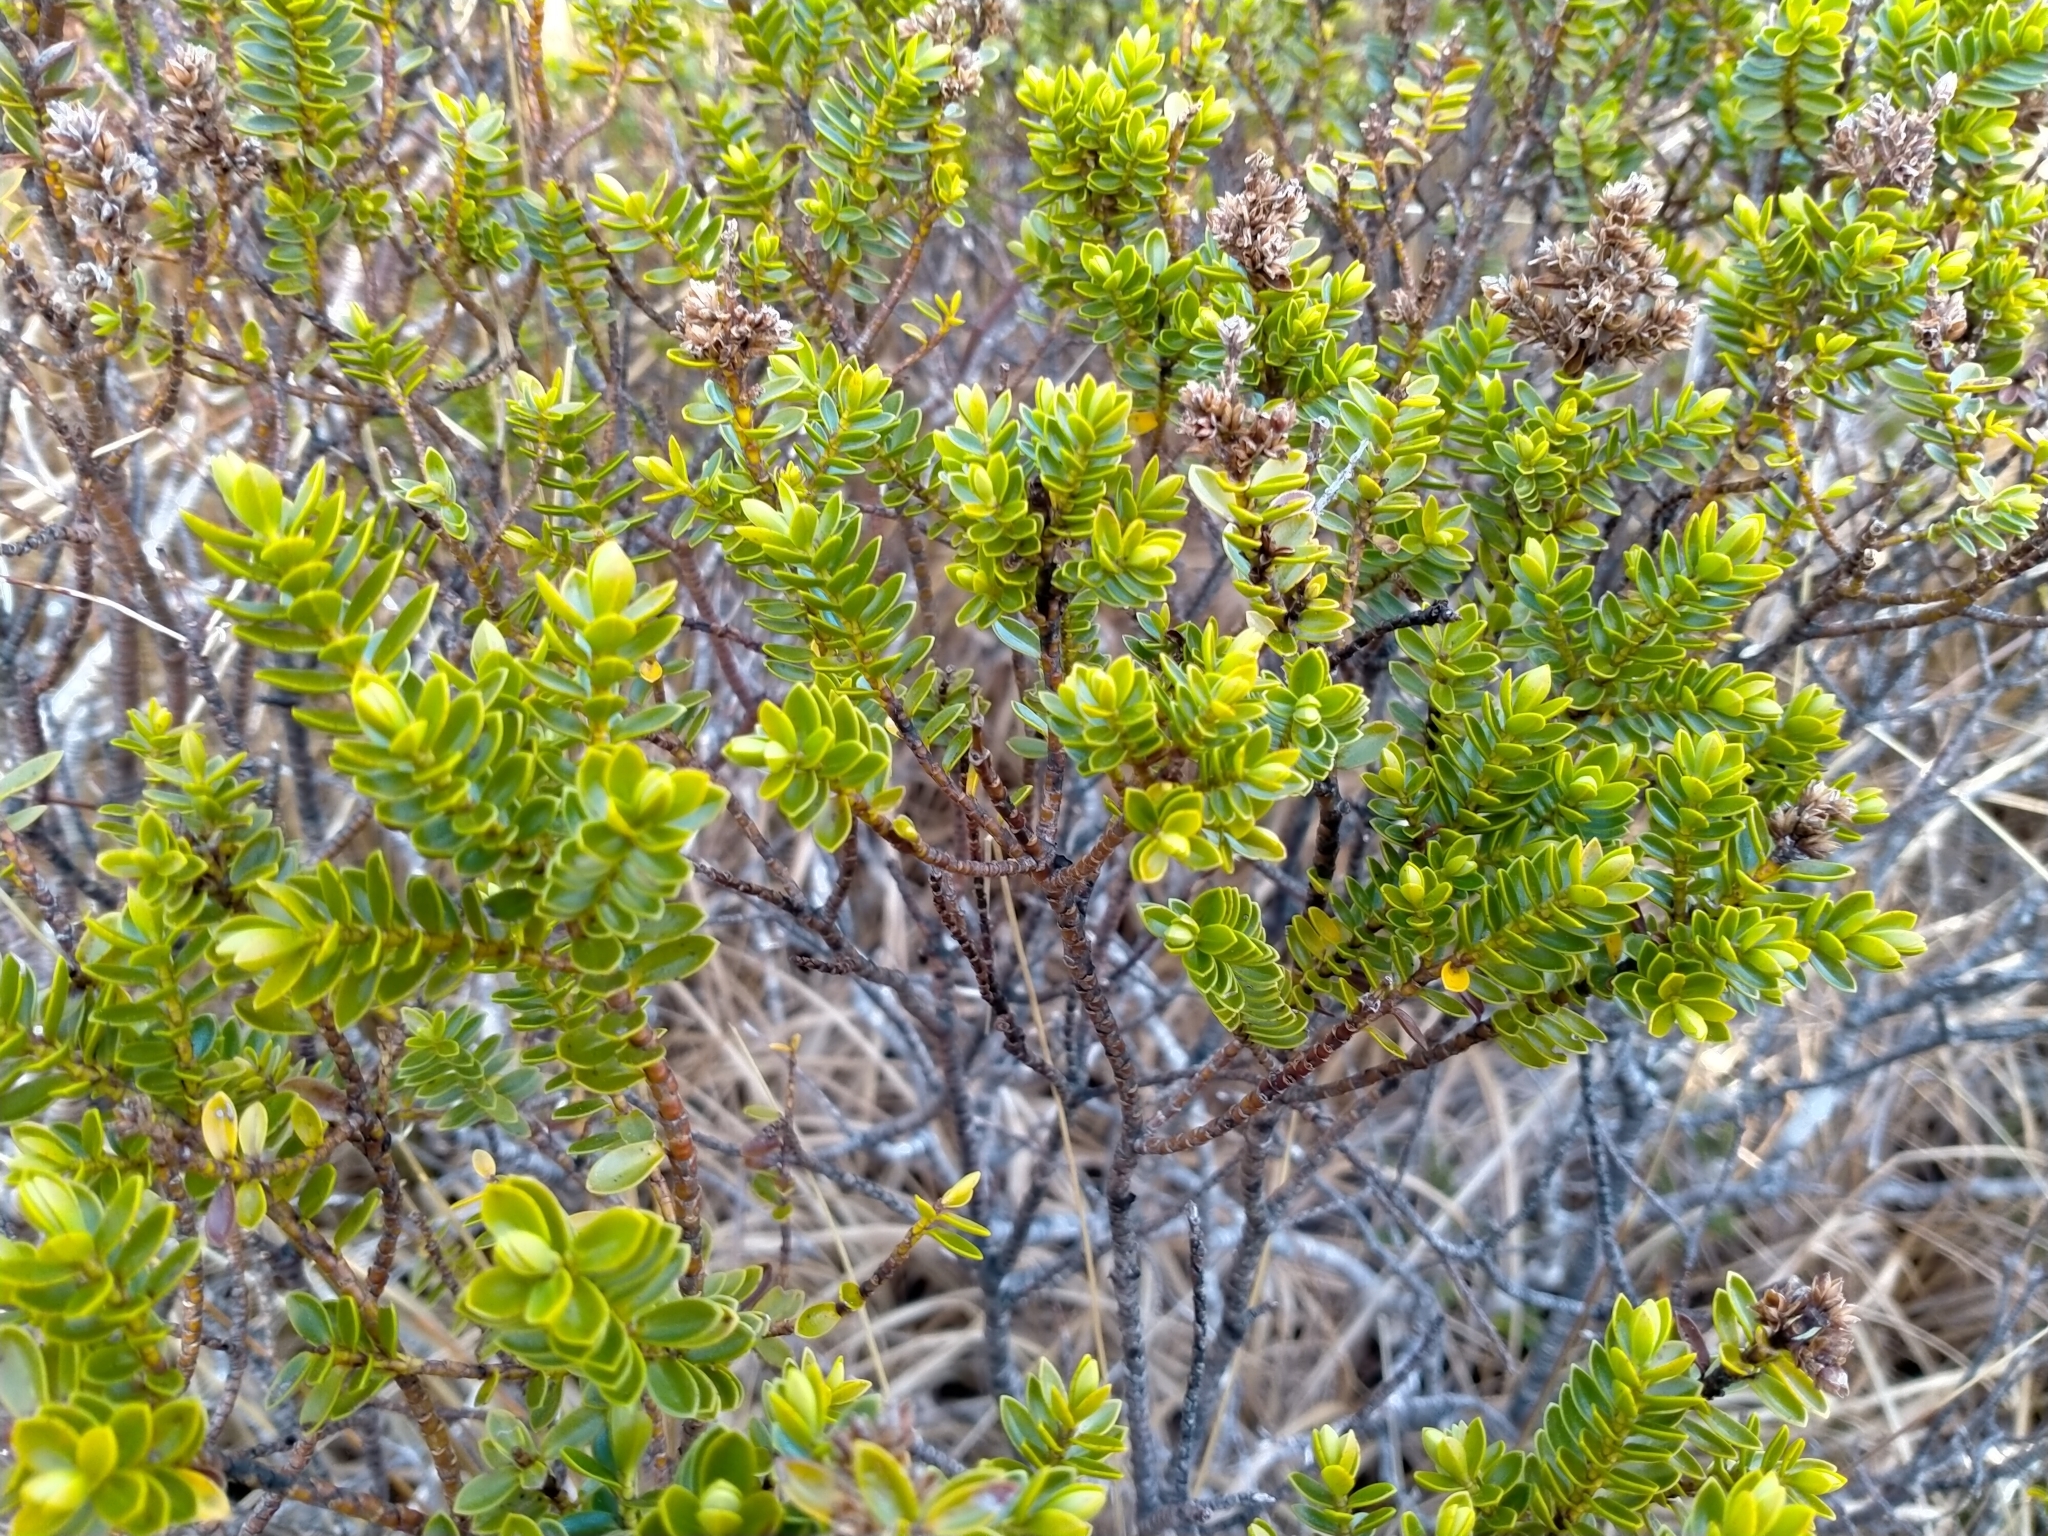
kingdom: Plantae
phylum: Tracheophyta
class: Magnoliopsida
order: Lamiales
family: Plantaginaceae
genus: Veronica
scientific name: Veronica odora
